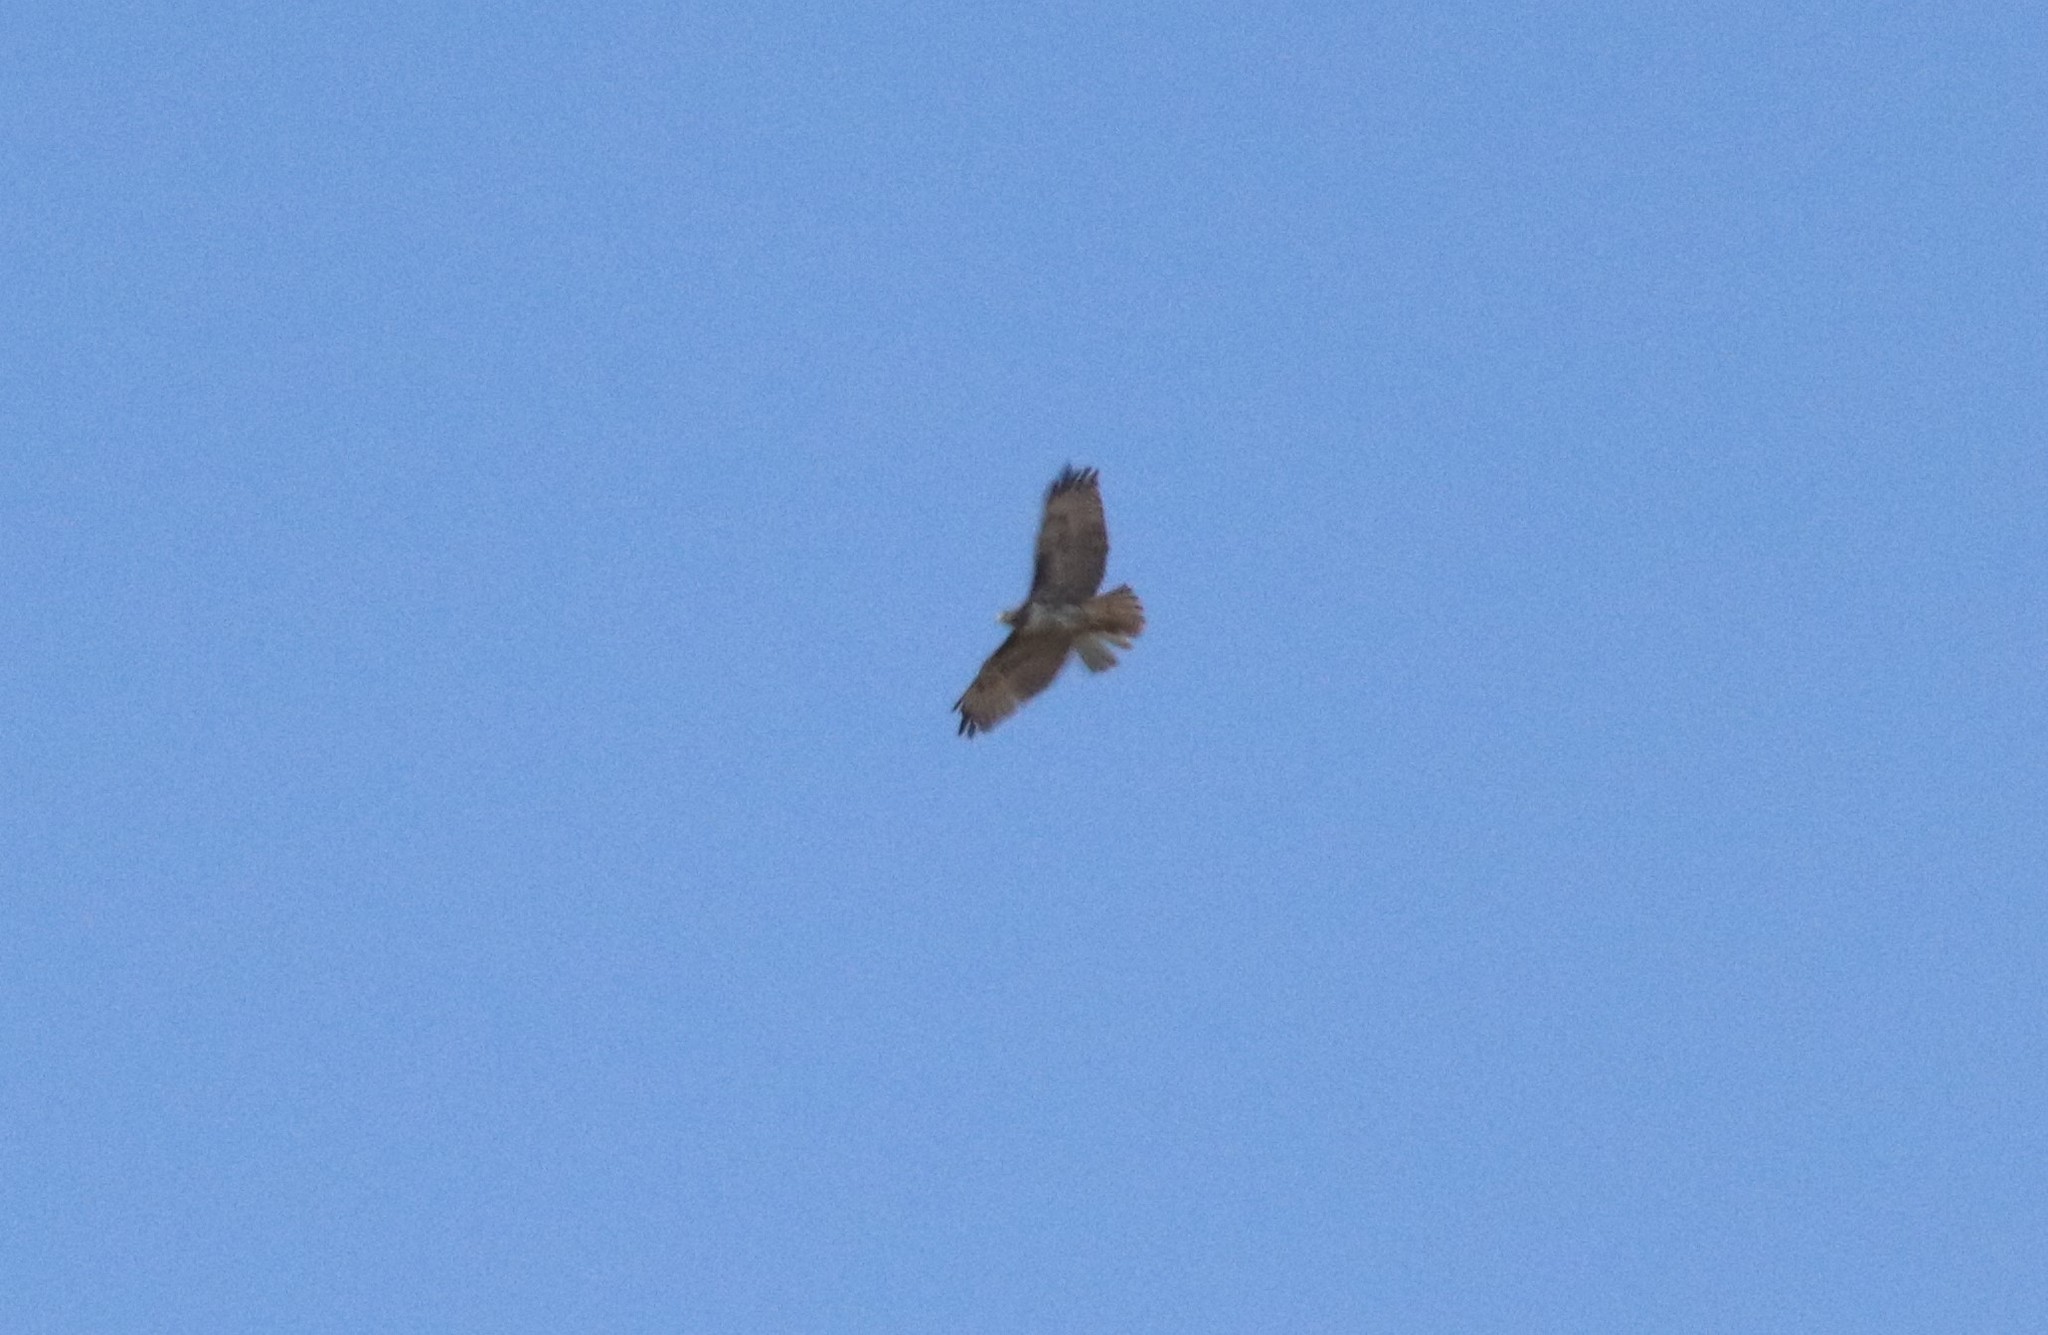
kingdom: Animalia
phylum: Chordata
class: Aves
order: Accipitriformes
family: Accipitridae
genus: Buteo
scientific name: Buteo jamaicensis
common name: Red-tailed hawk
